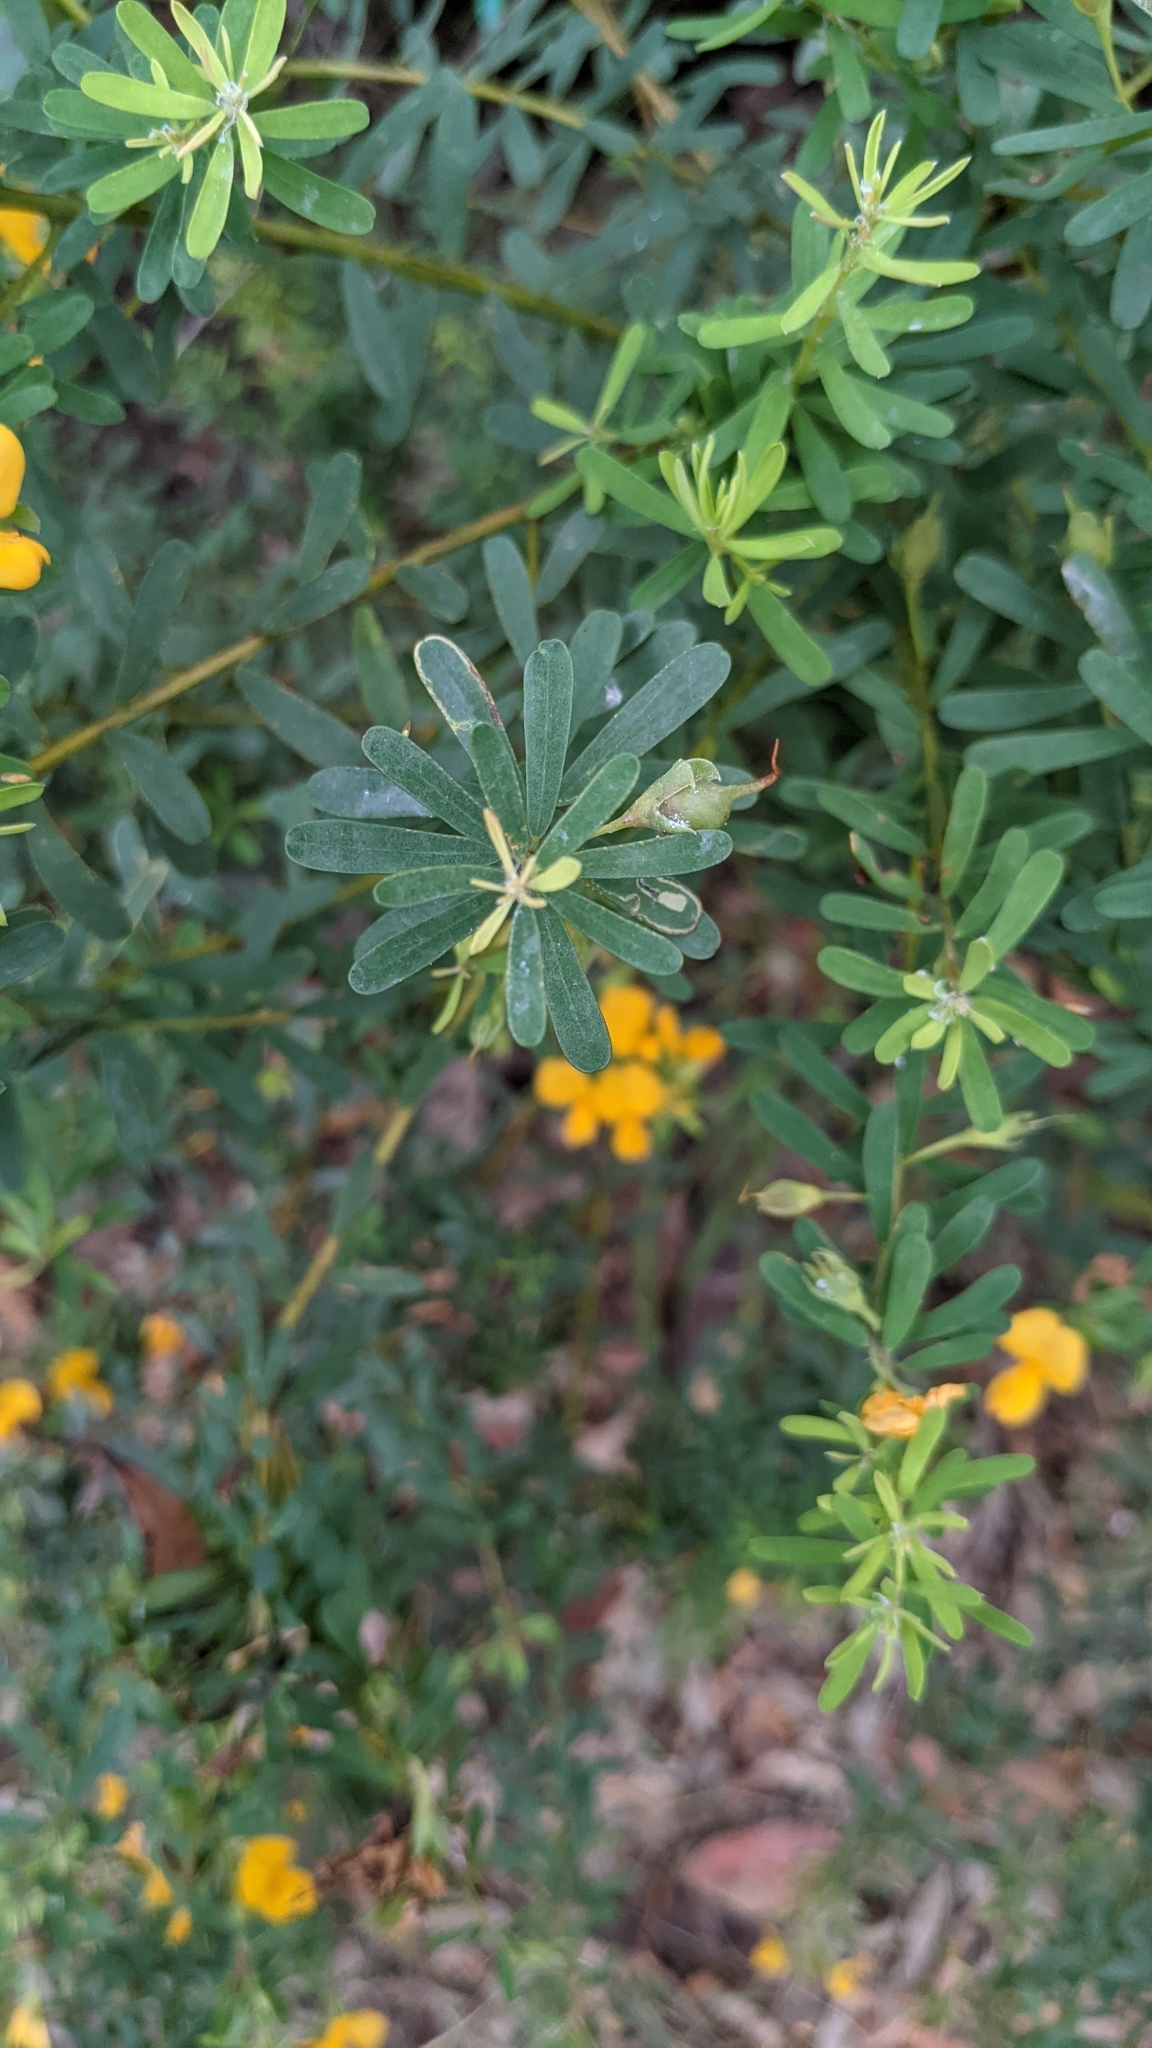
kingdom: Plantae
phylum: Tracheophyta
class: Magnoliopsida
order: Fabales
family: Fabaceae
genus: Pultenaea
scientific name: Pultenaea euchila
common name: Large-flower bush-pea
